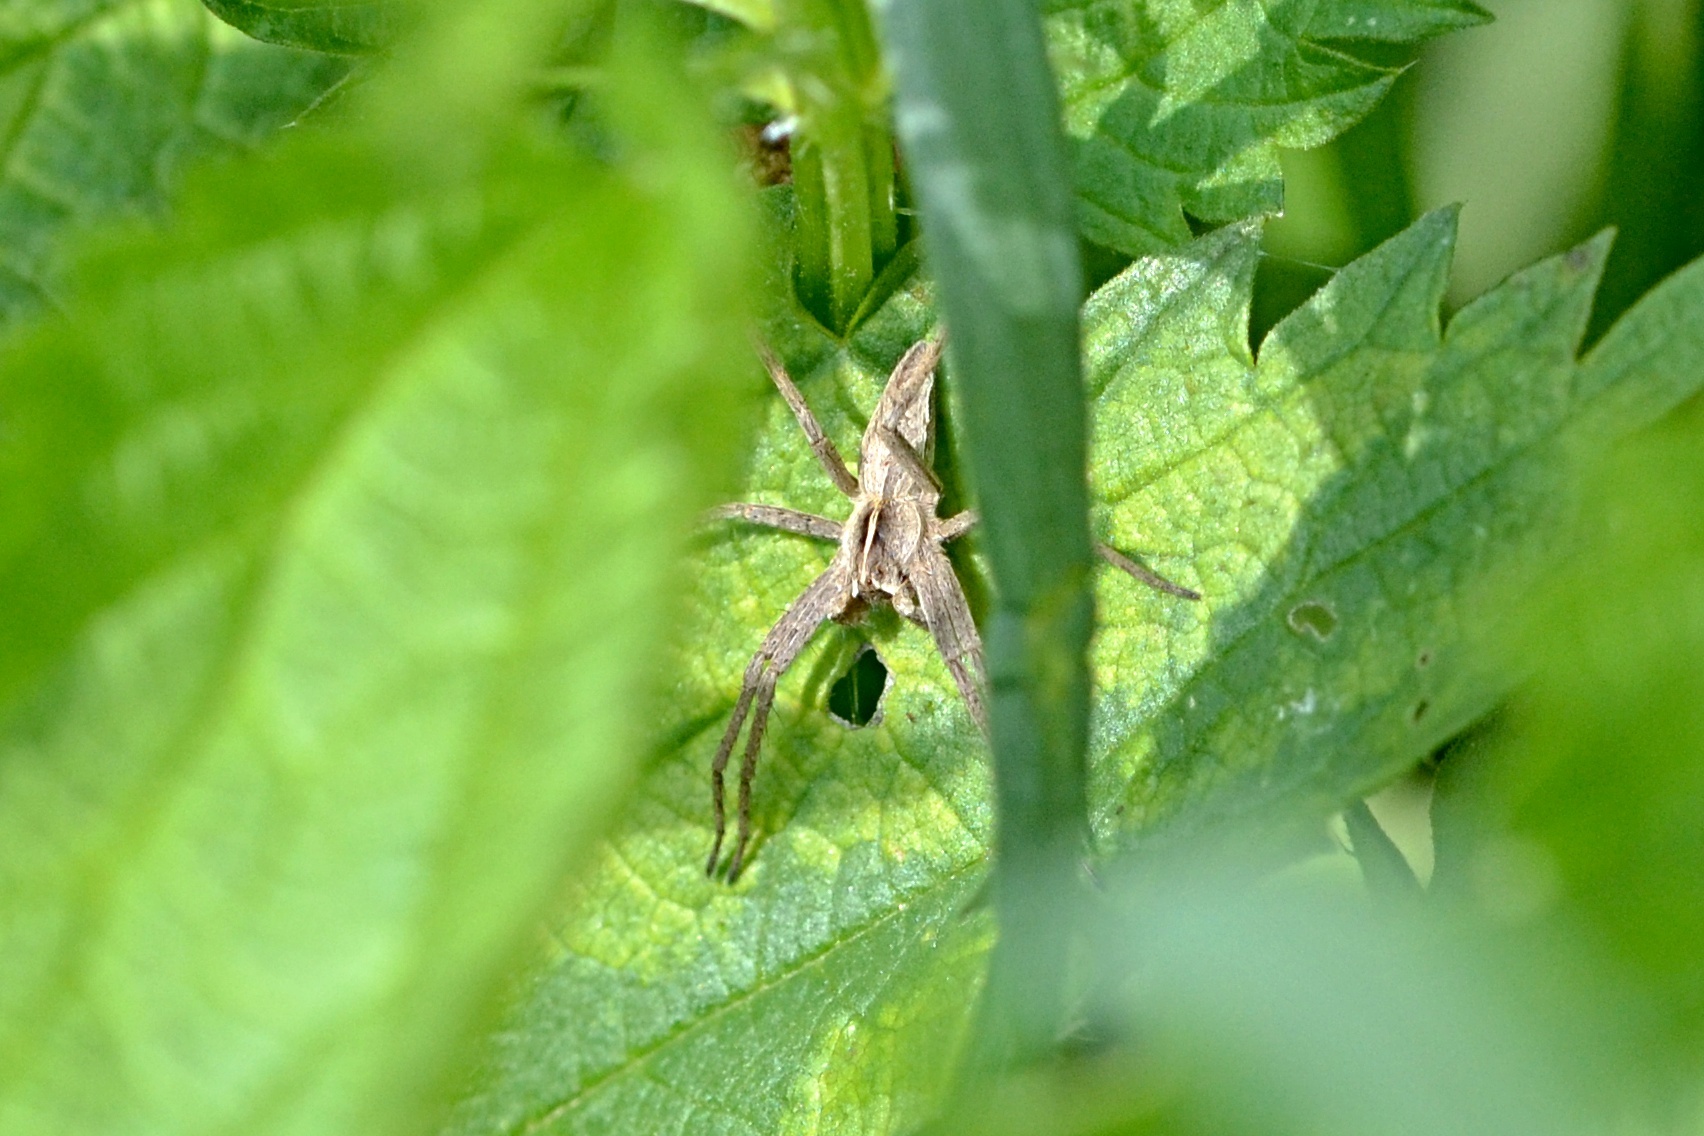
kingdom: Animalia
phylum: Arthropoda
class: Arachnida
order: Araneae
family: Pisauridae
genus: Pisaura
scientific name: Pisaura mirabilis
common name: Tent spider
